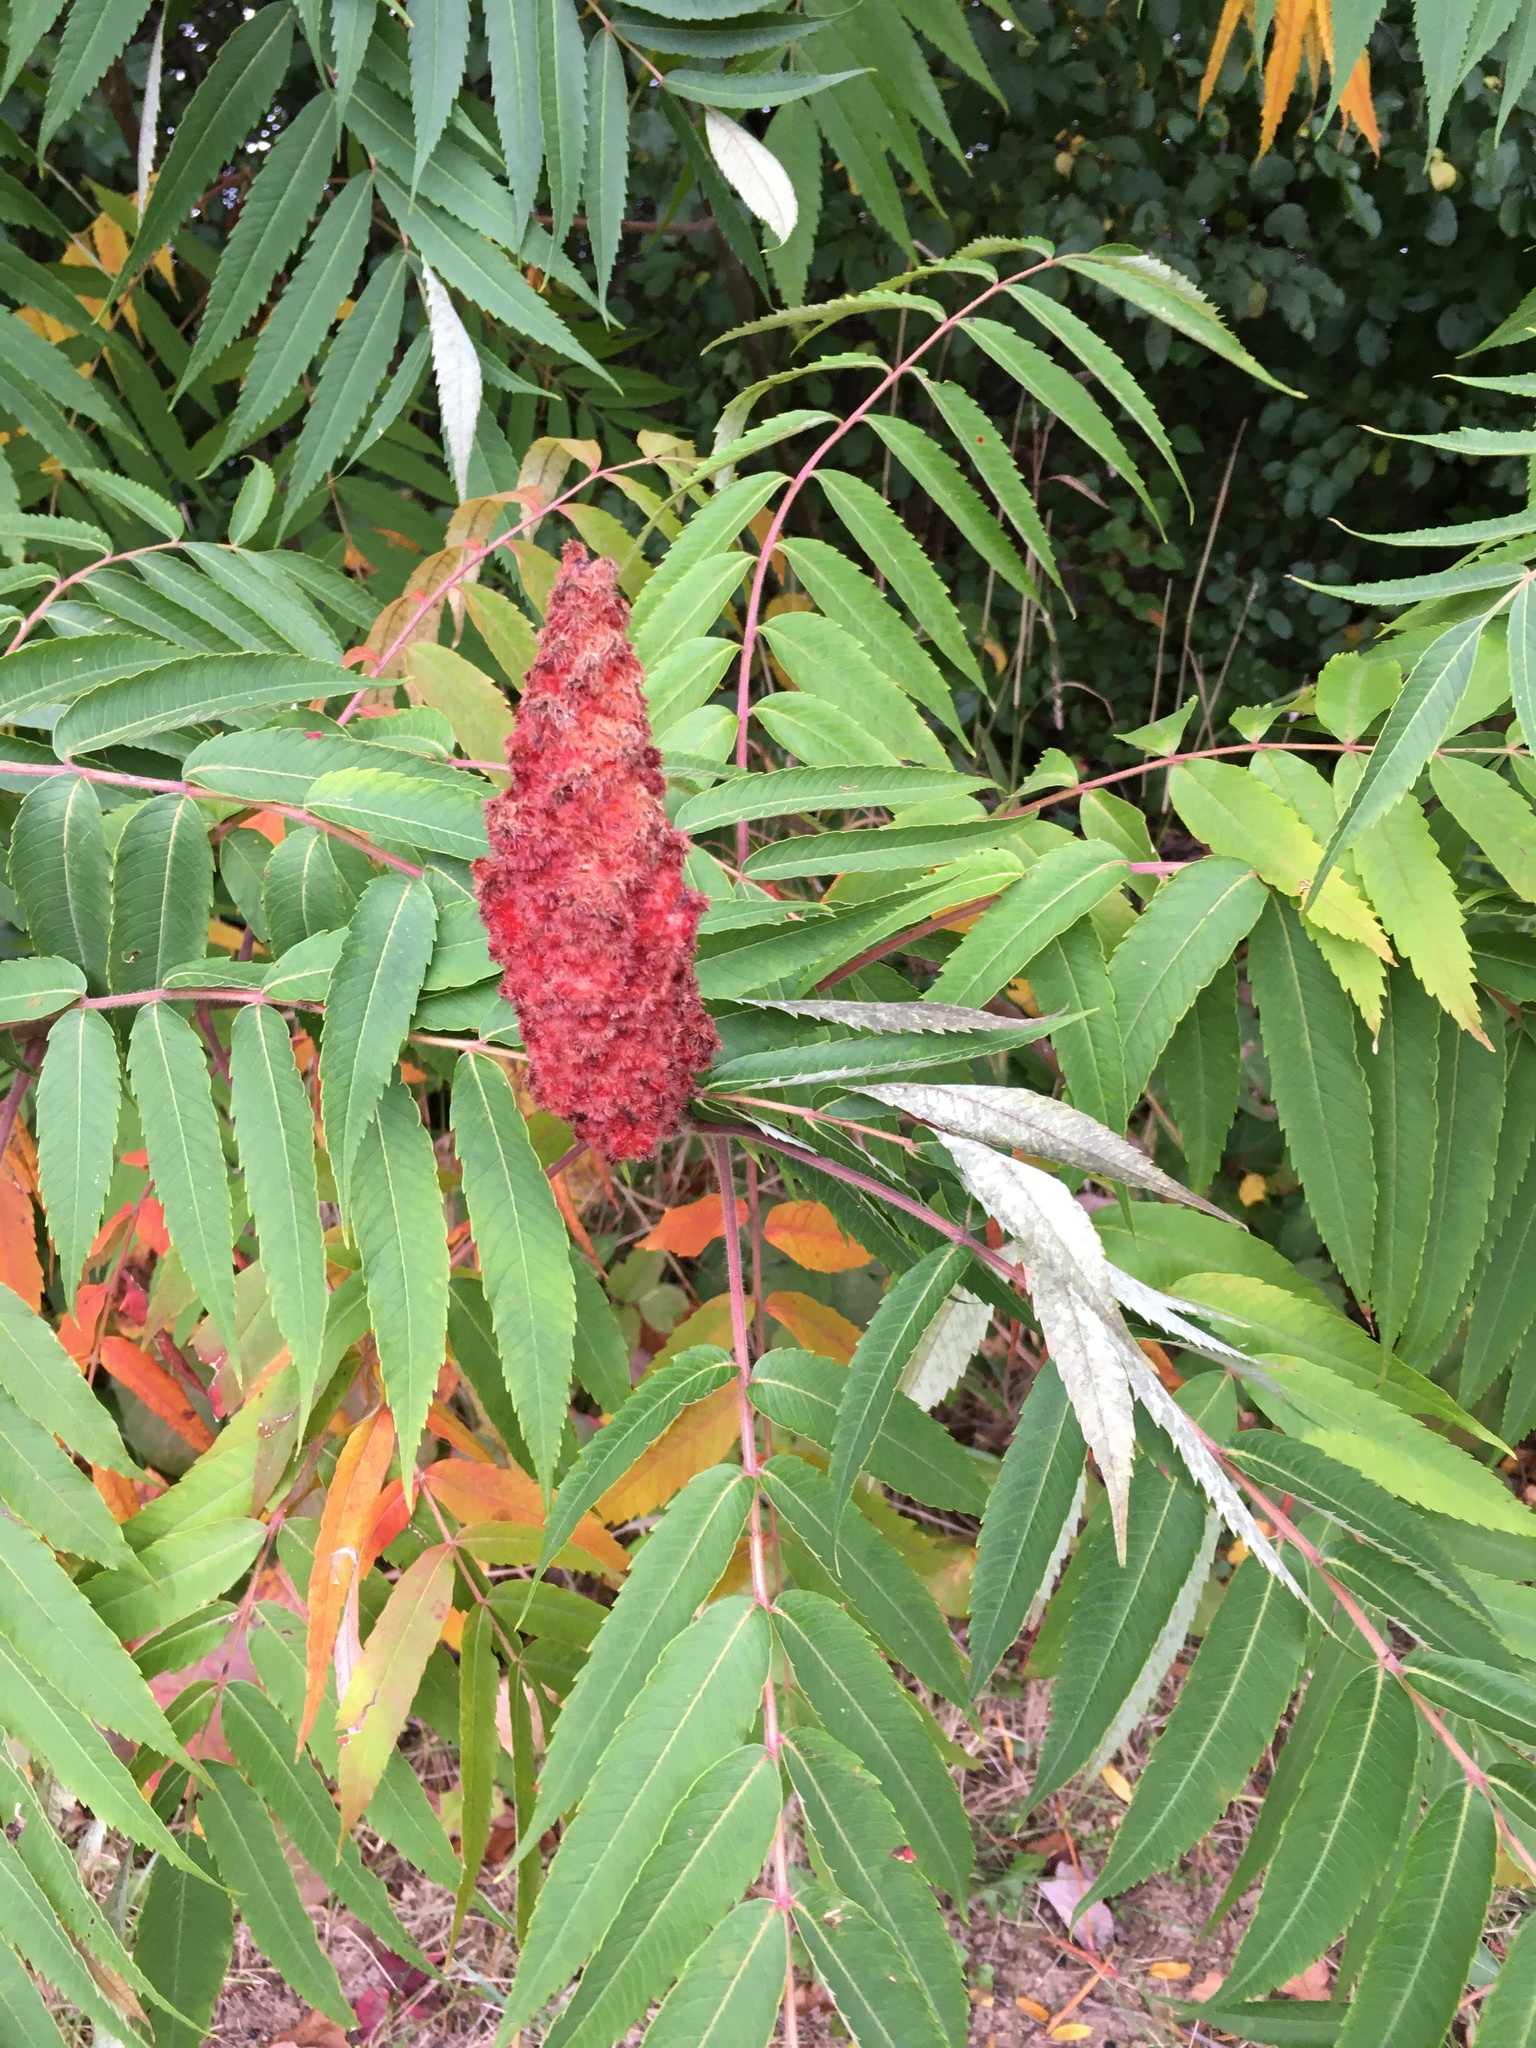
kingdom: Plantae
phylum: Tracheophyta
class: Magnoliopsida
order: Sapindales
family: Anacardiaceae
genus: Rhus
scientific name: Rhus typhina
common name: Staghorn sumac
